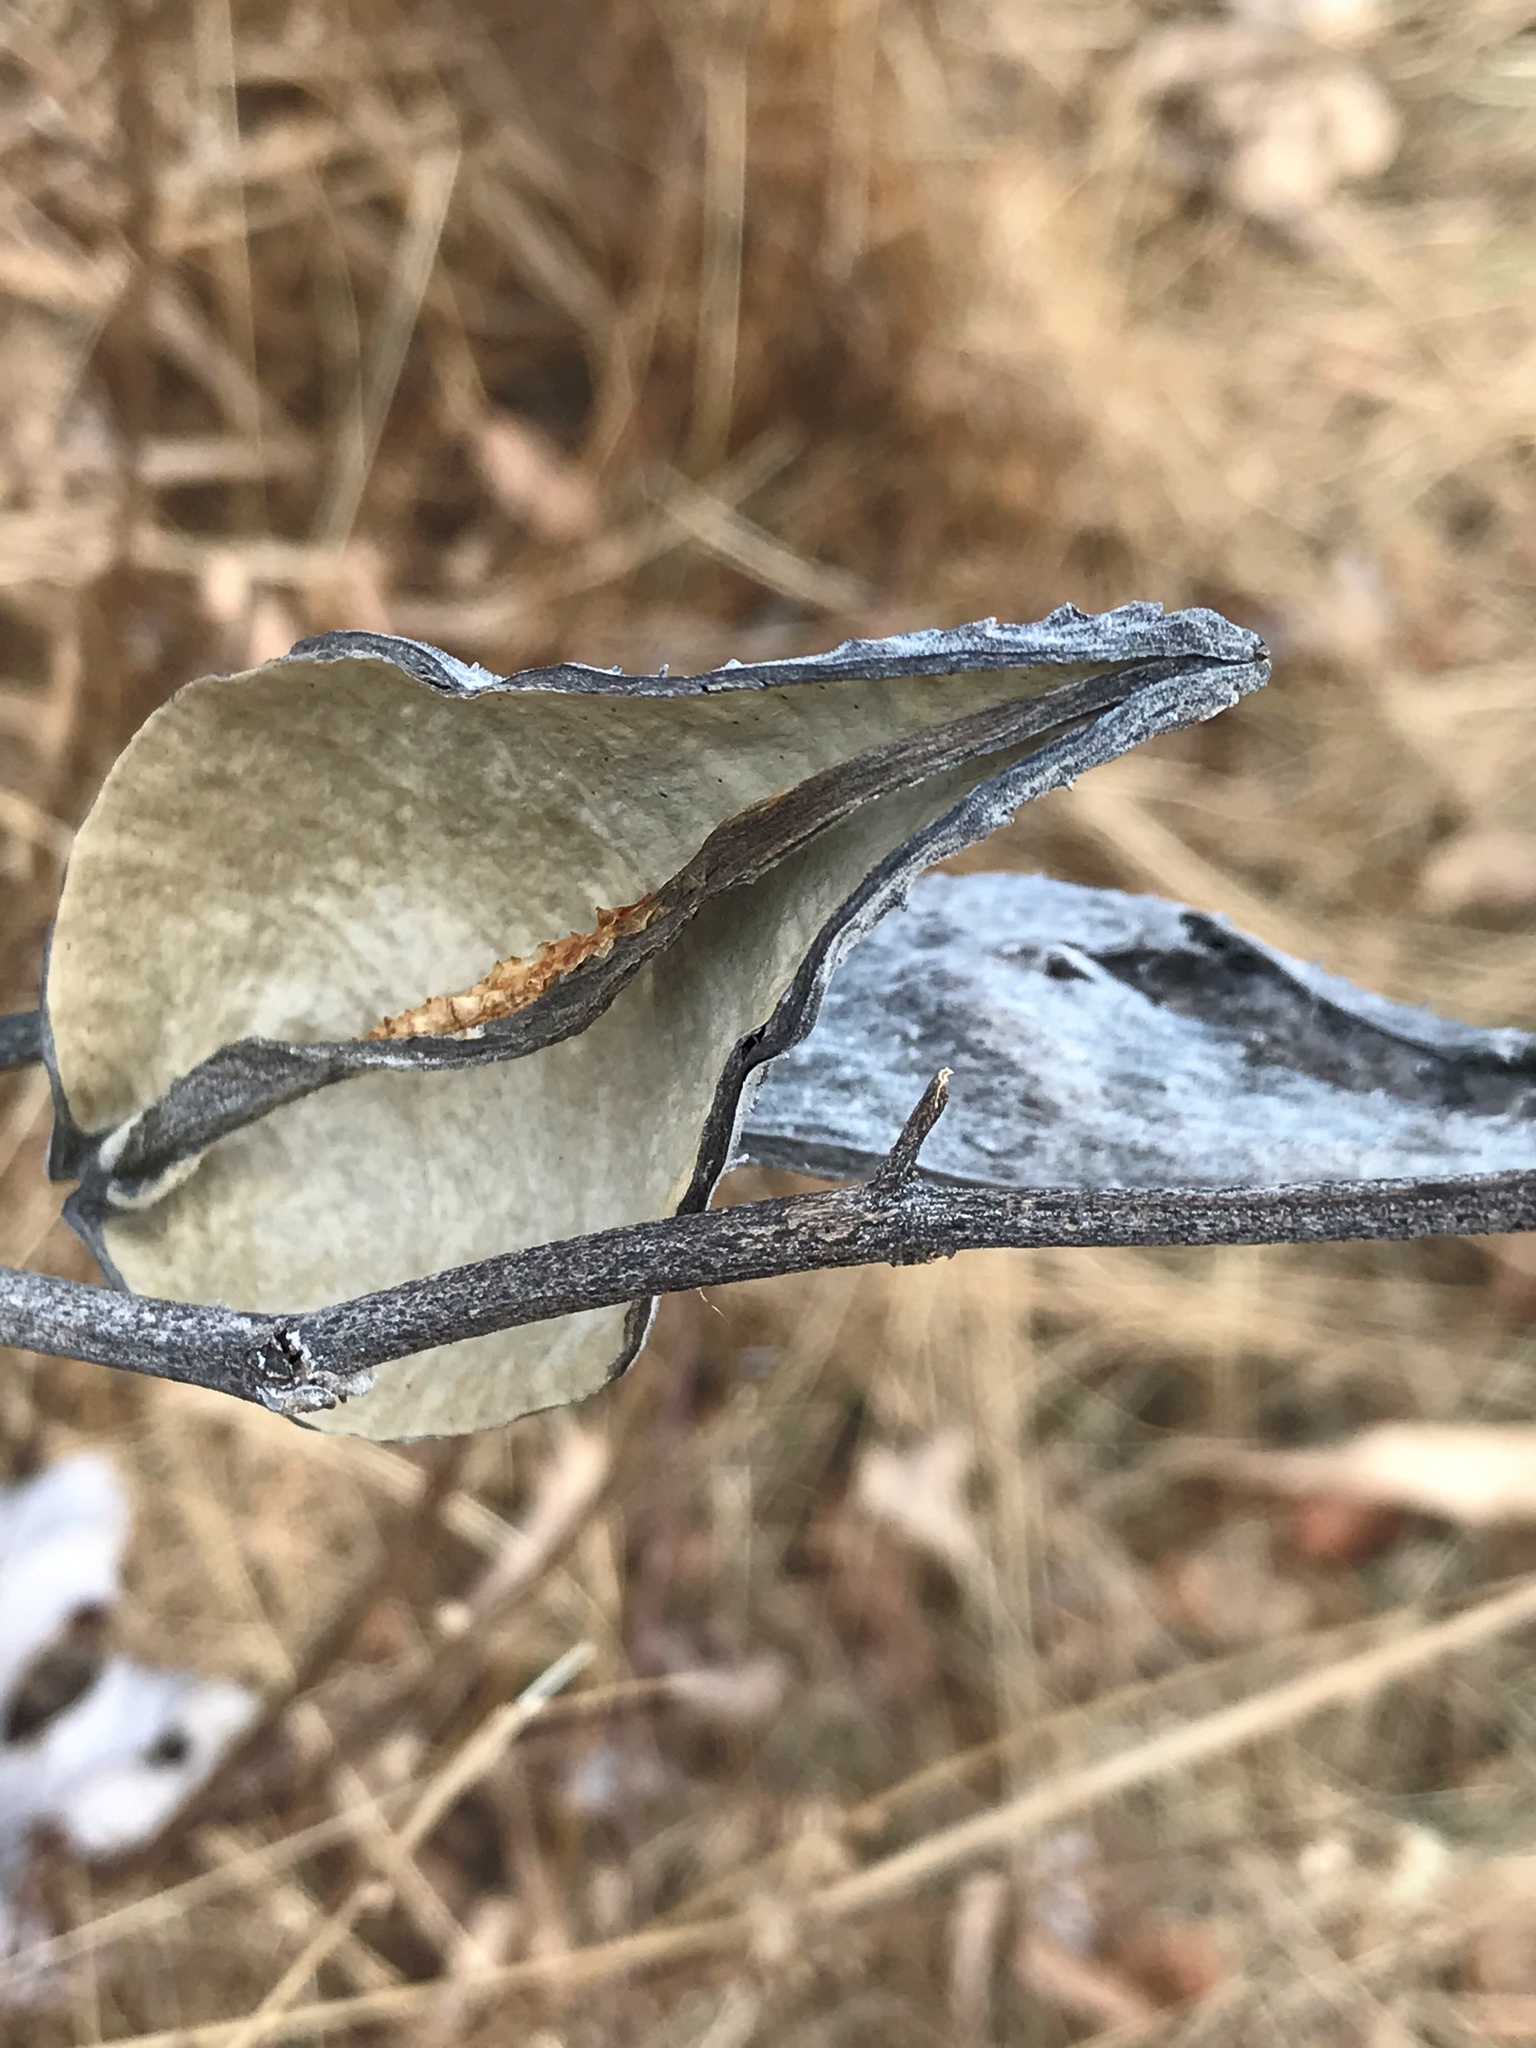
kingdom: Plantae
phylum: Tracheophyta
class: Magnoliopsida
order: Gentianales
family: Apocynaceae
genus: Asclepias
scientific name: Asclepias syriaca
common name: Common milkweed
